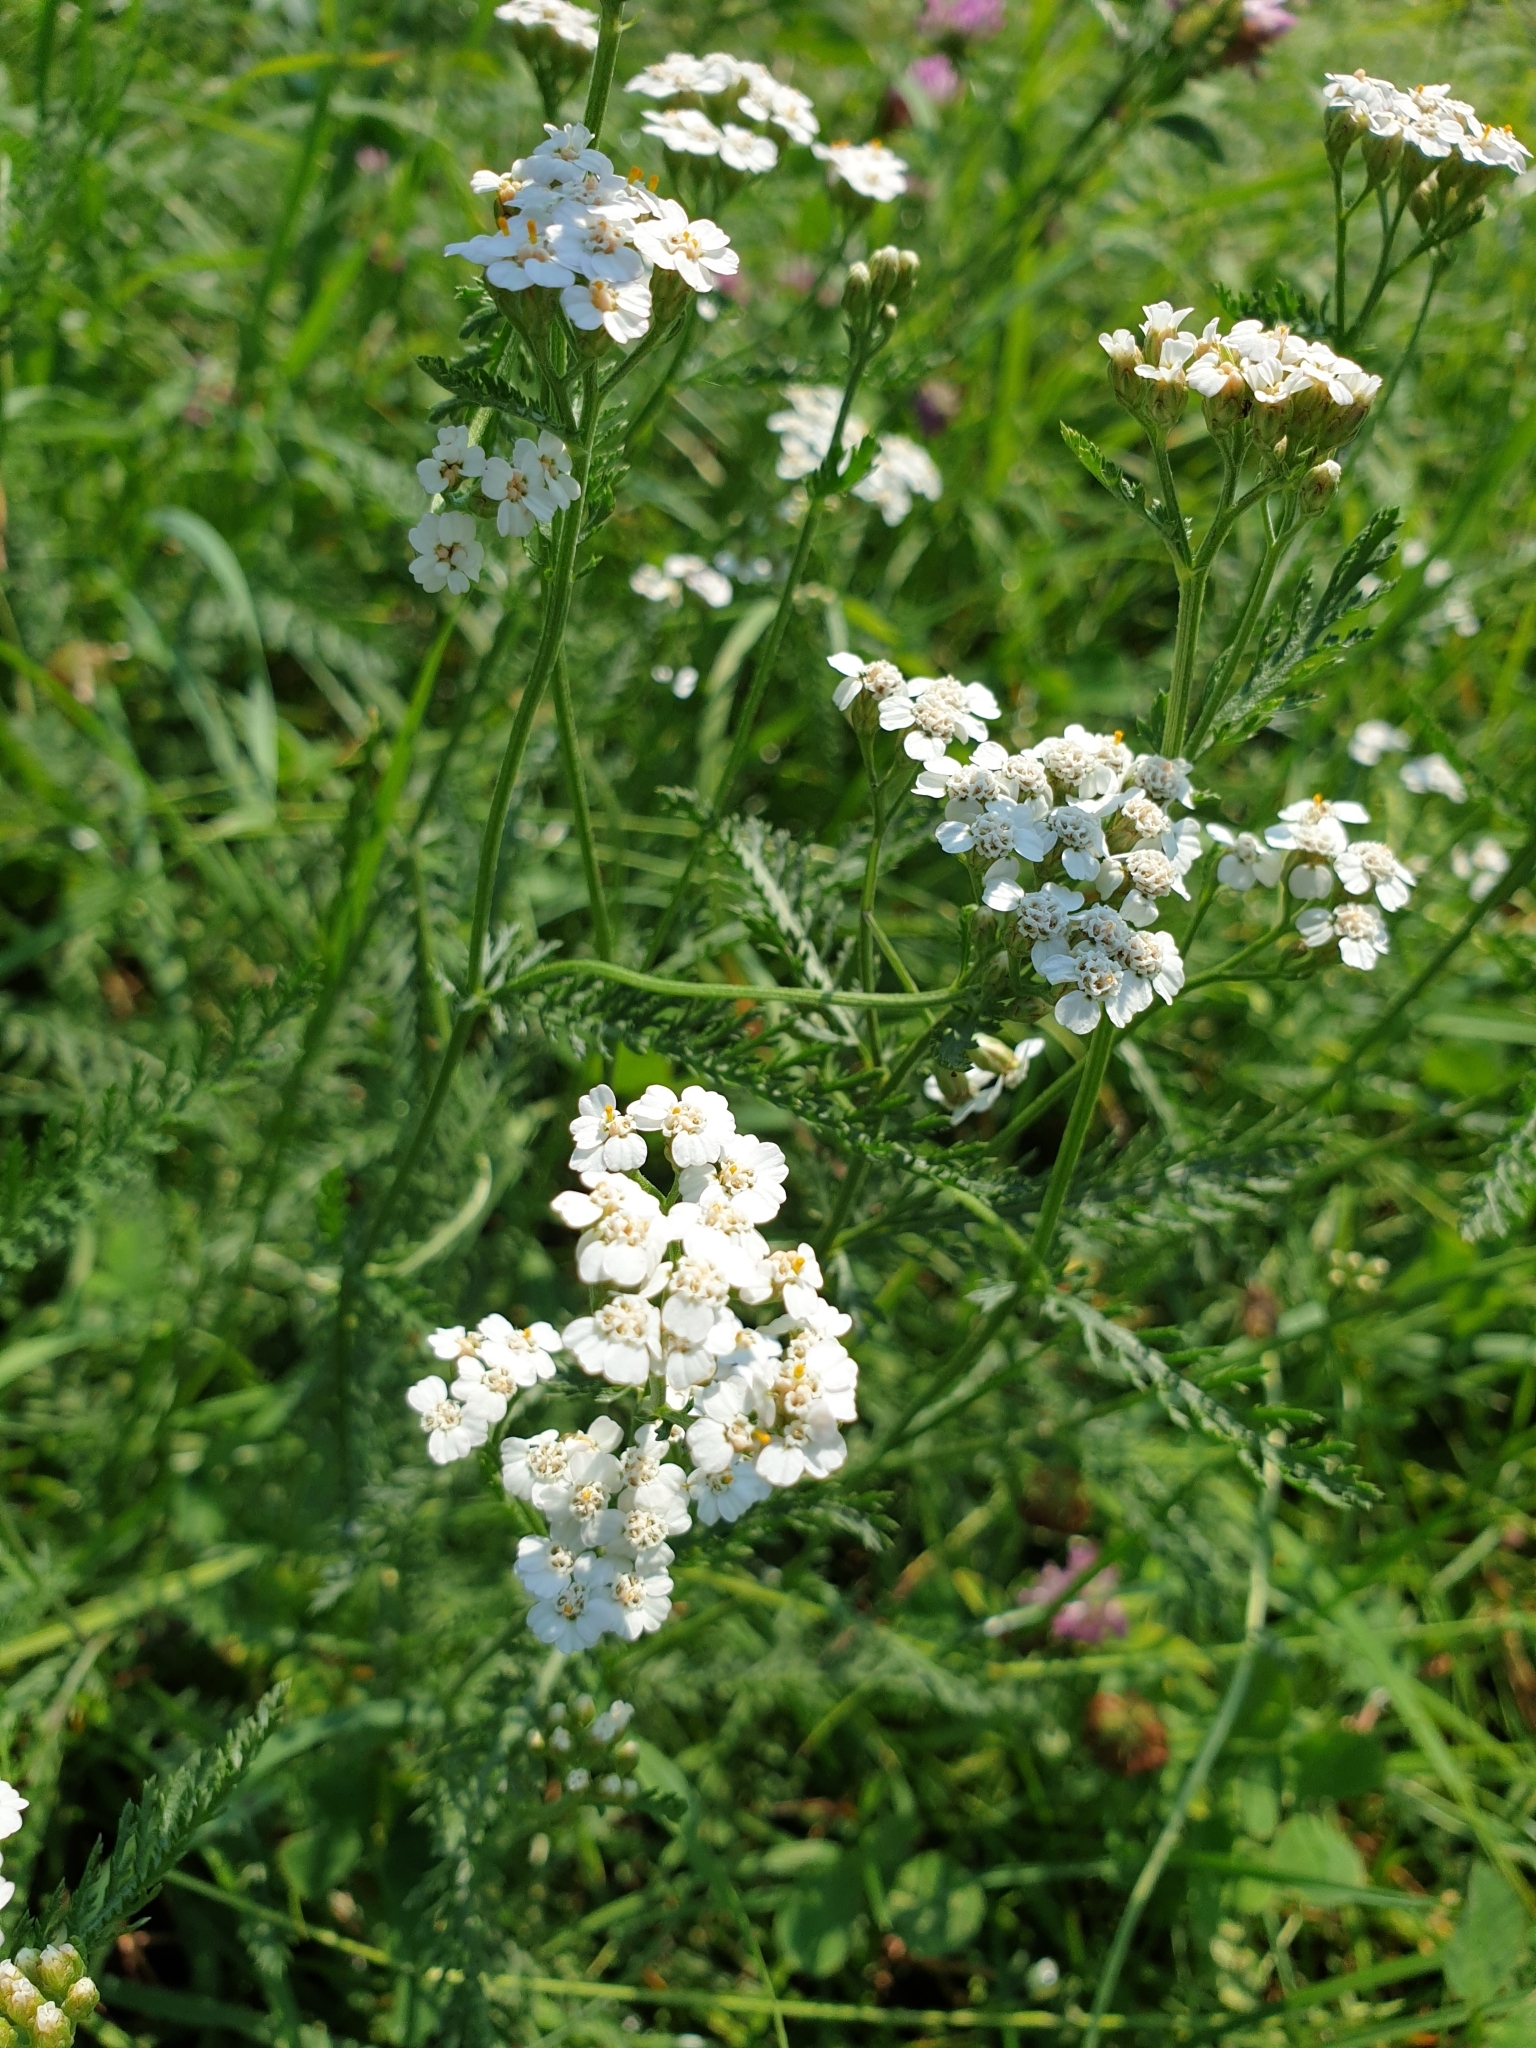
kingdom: Plantae
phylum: Tracheophyta
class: Magnoliopsida
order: Asterales
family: Asteraceae
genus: Achillea
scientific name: Achillea millefolium
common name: Yarrow
